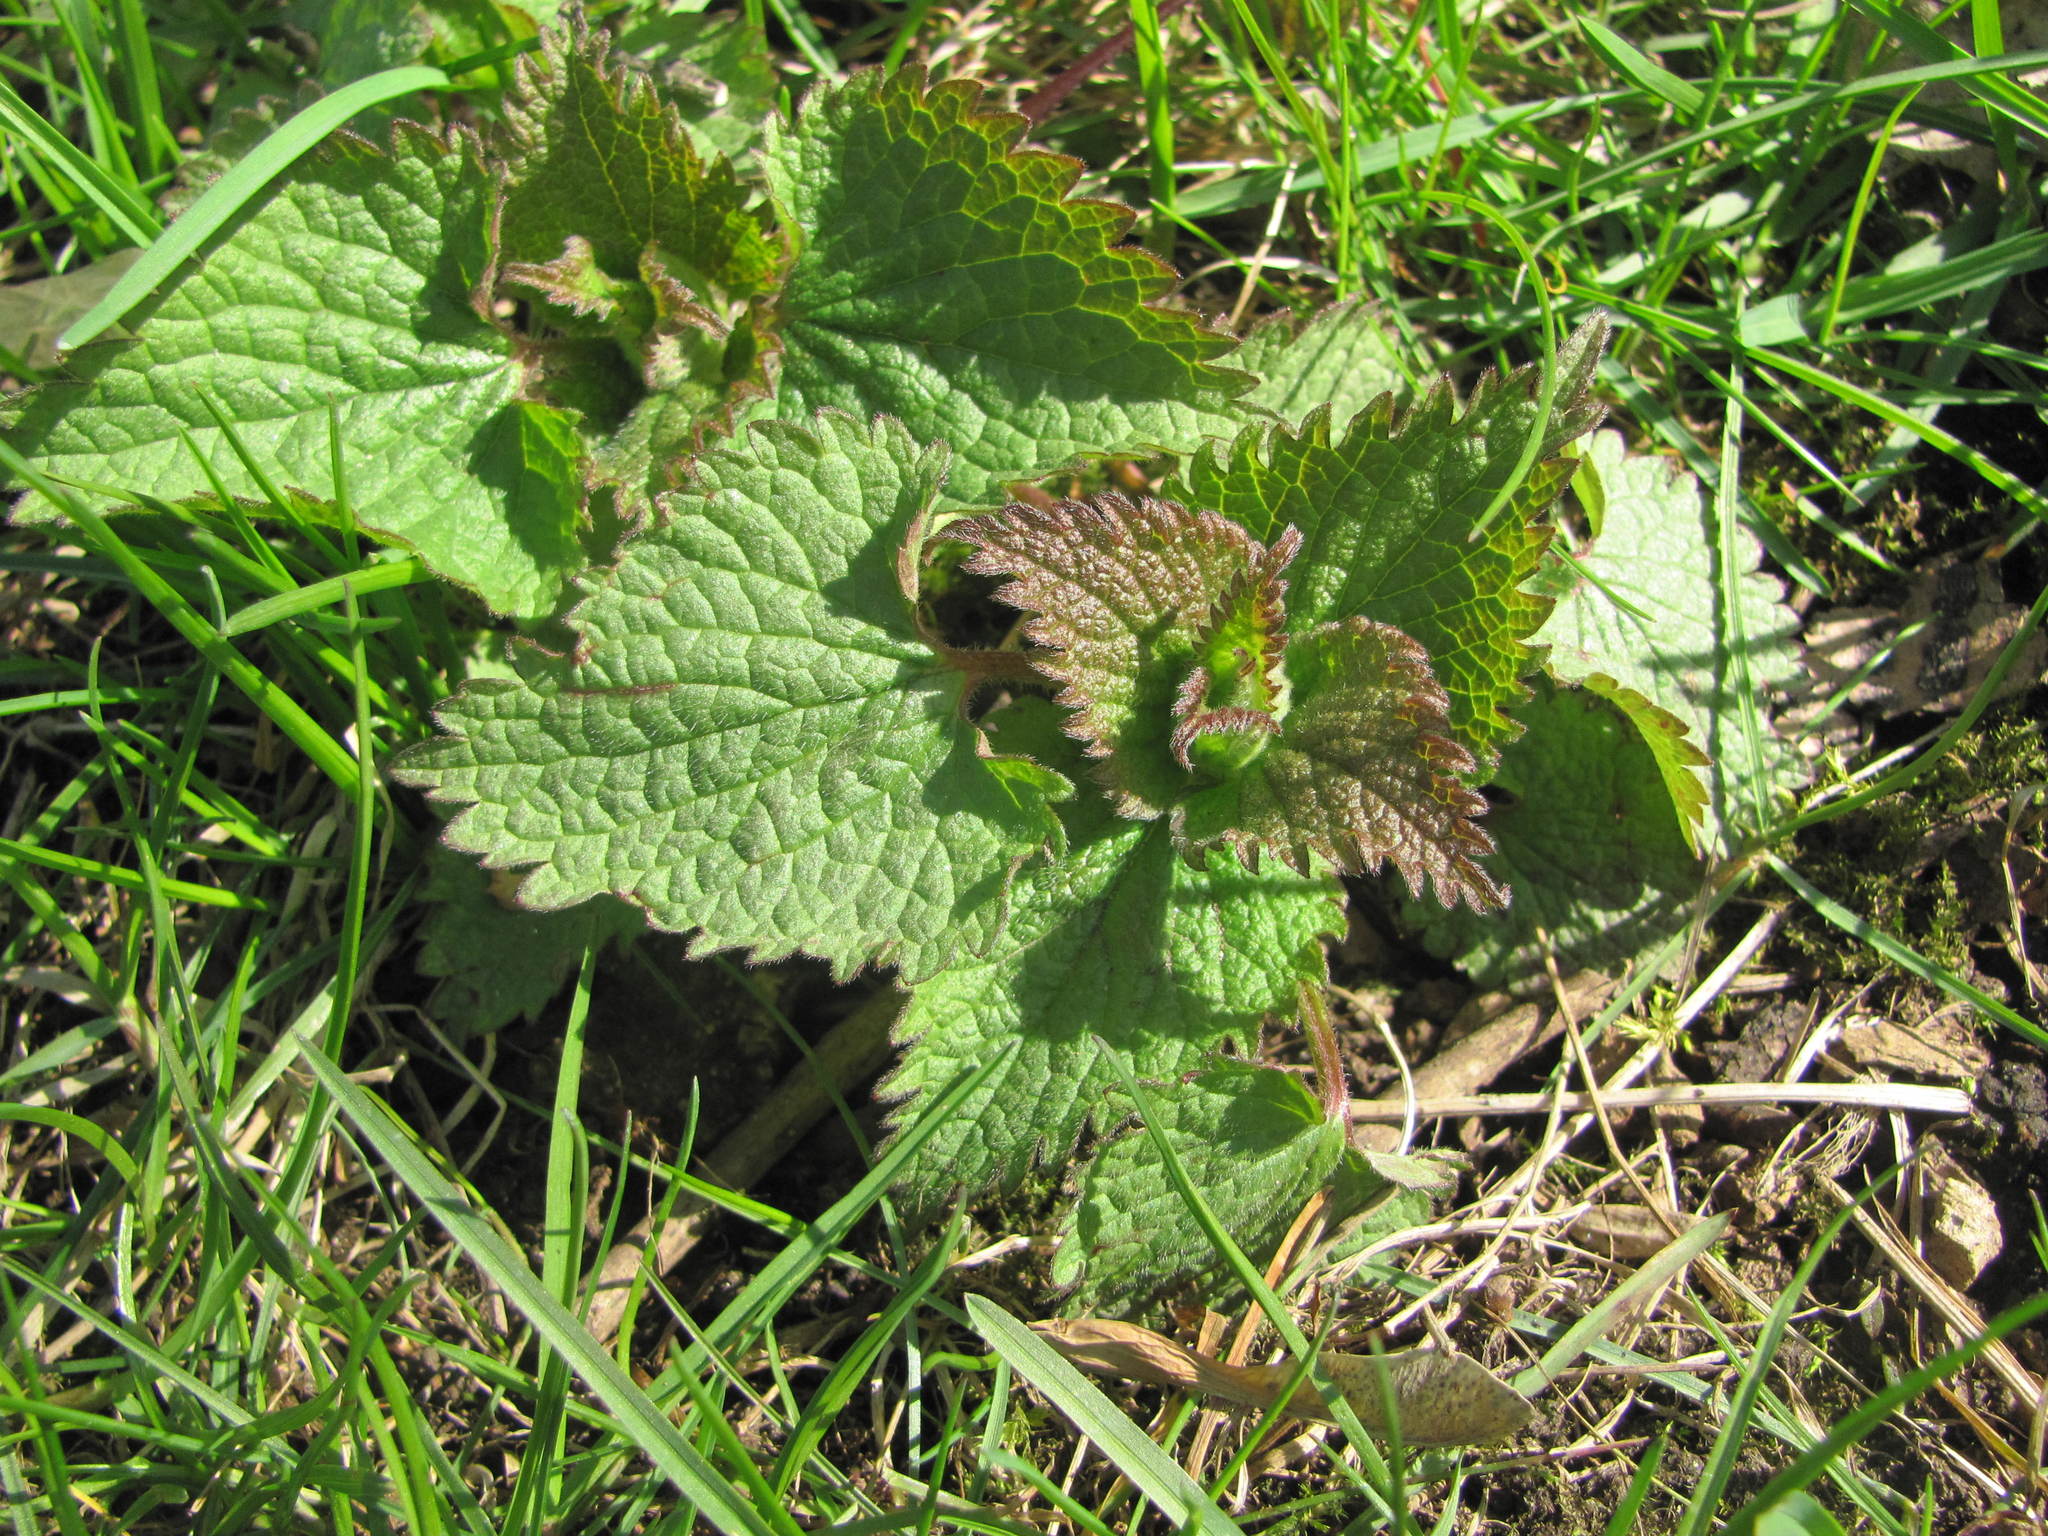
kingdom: Plantae
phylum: Tracheophyta
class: Magnoliopsida
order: Lamiales
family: Lamiaceae
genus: Lamium
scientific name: Lamium album
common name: White dead-nettle
